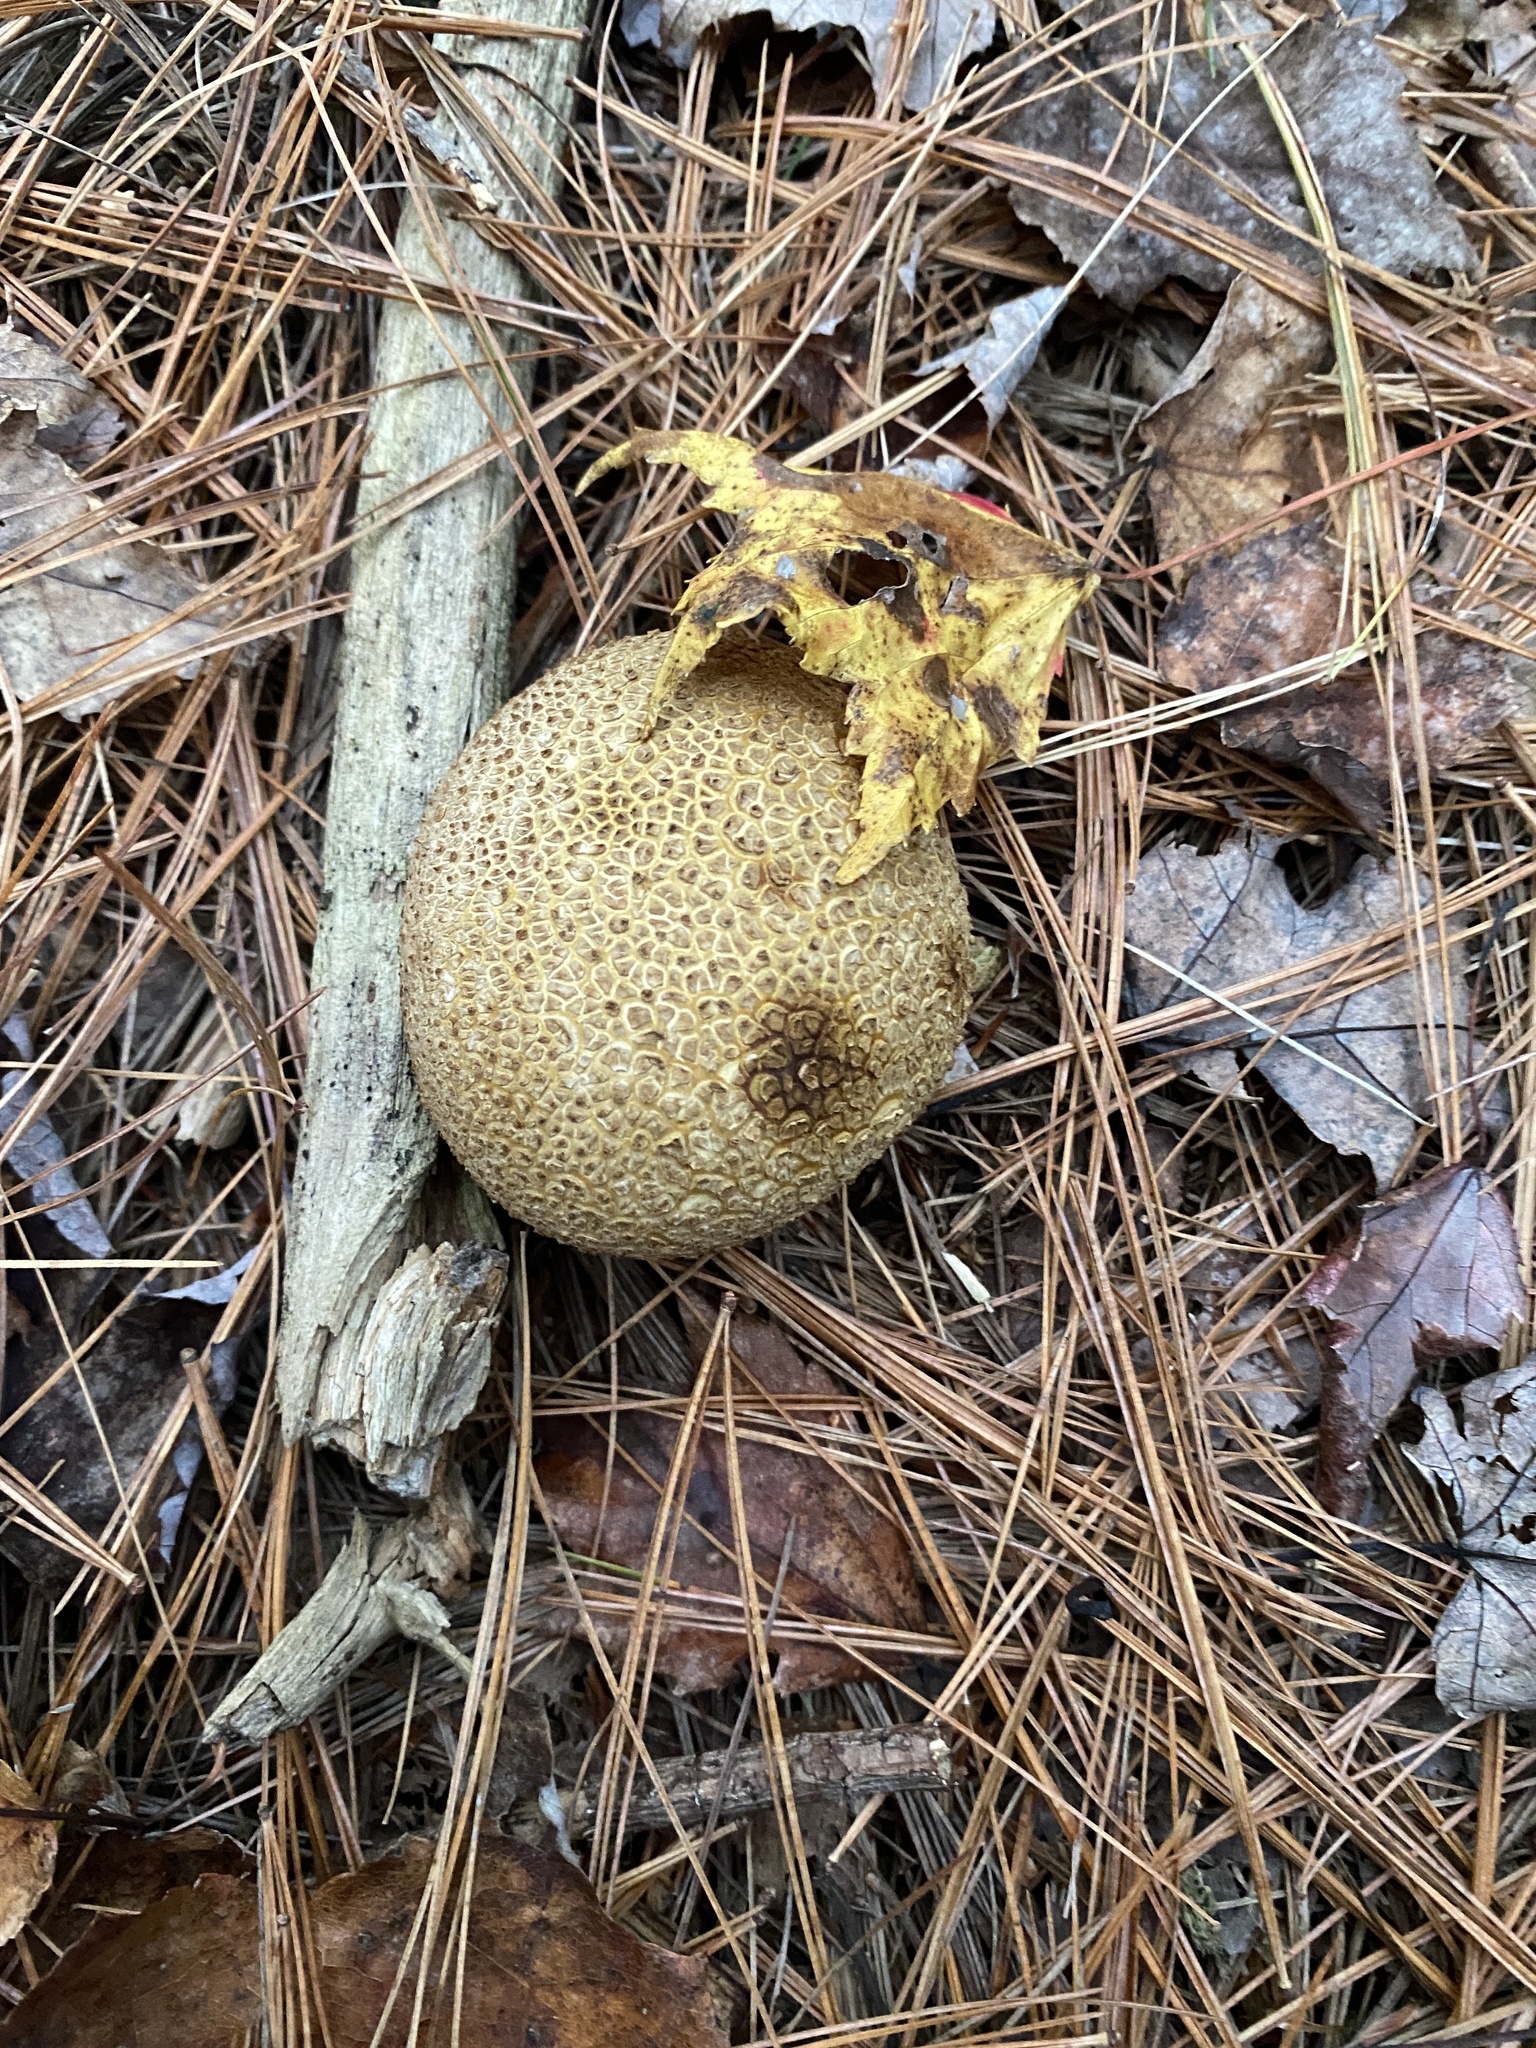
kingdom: Fungi
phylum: Basidiomycota
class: Agaricomycetes
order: Boletales
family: Sclerodermataceae
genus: Scleroderma
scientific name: Scleroderma citrinum
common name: Common earthball
